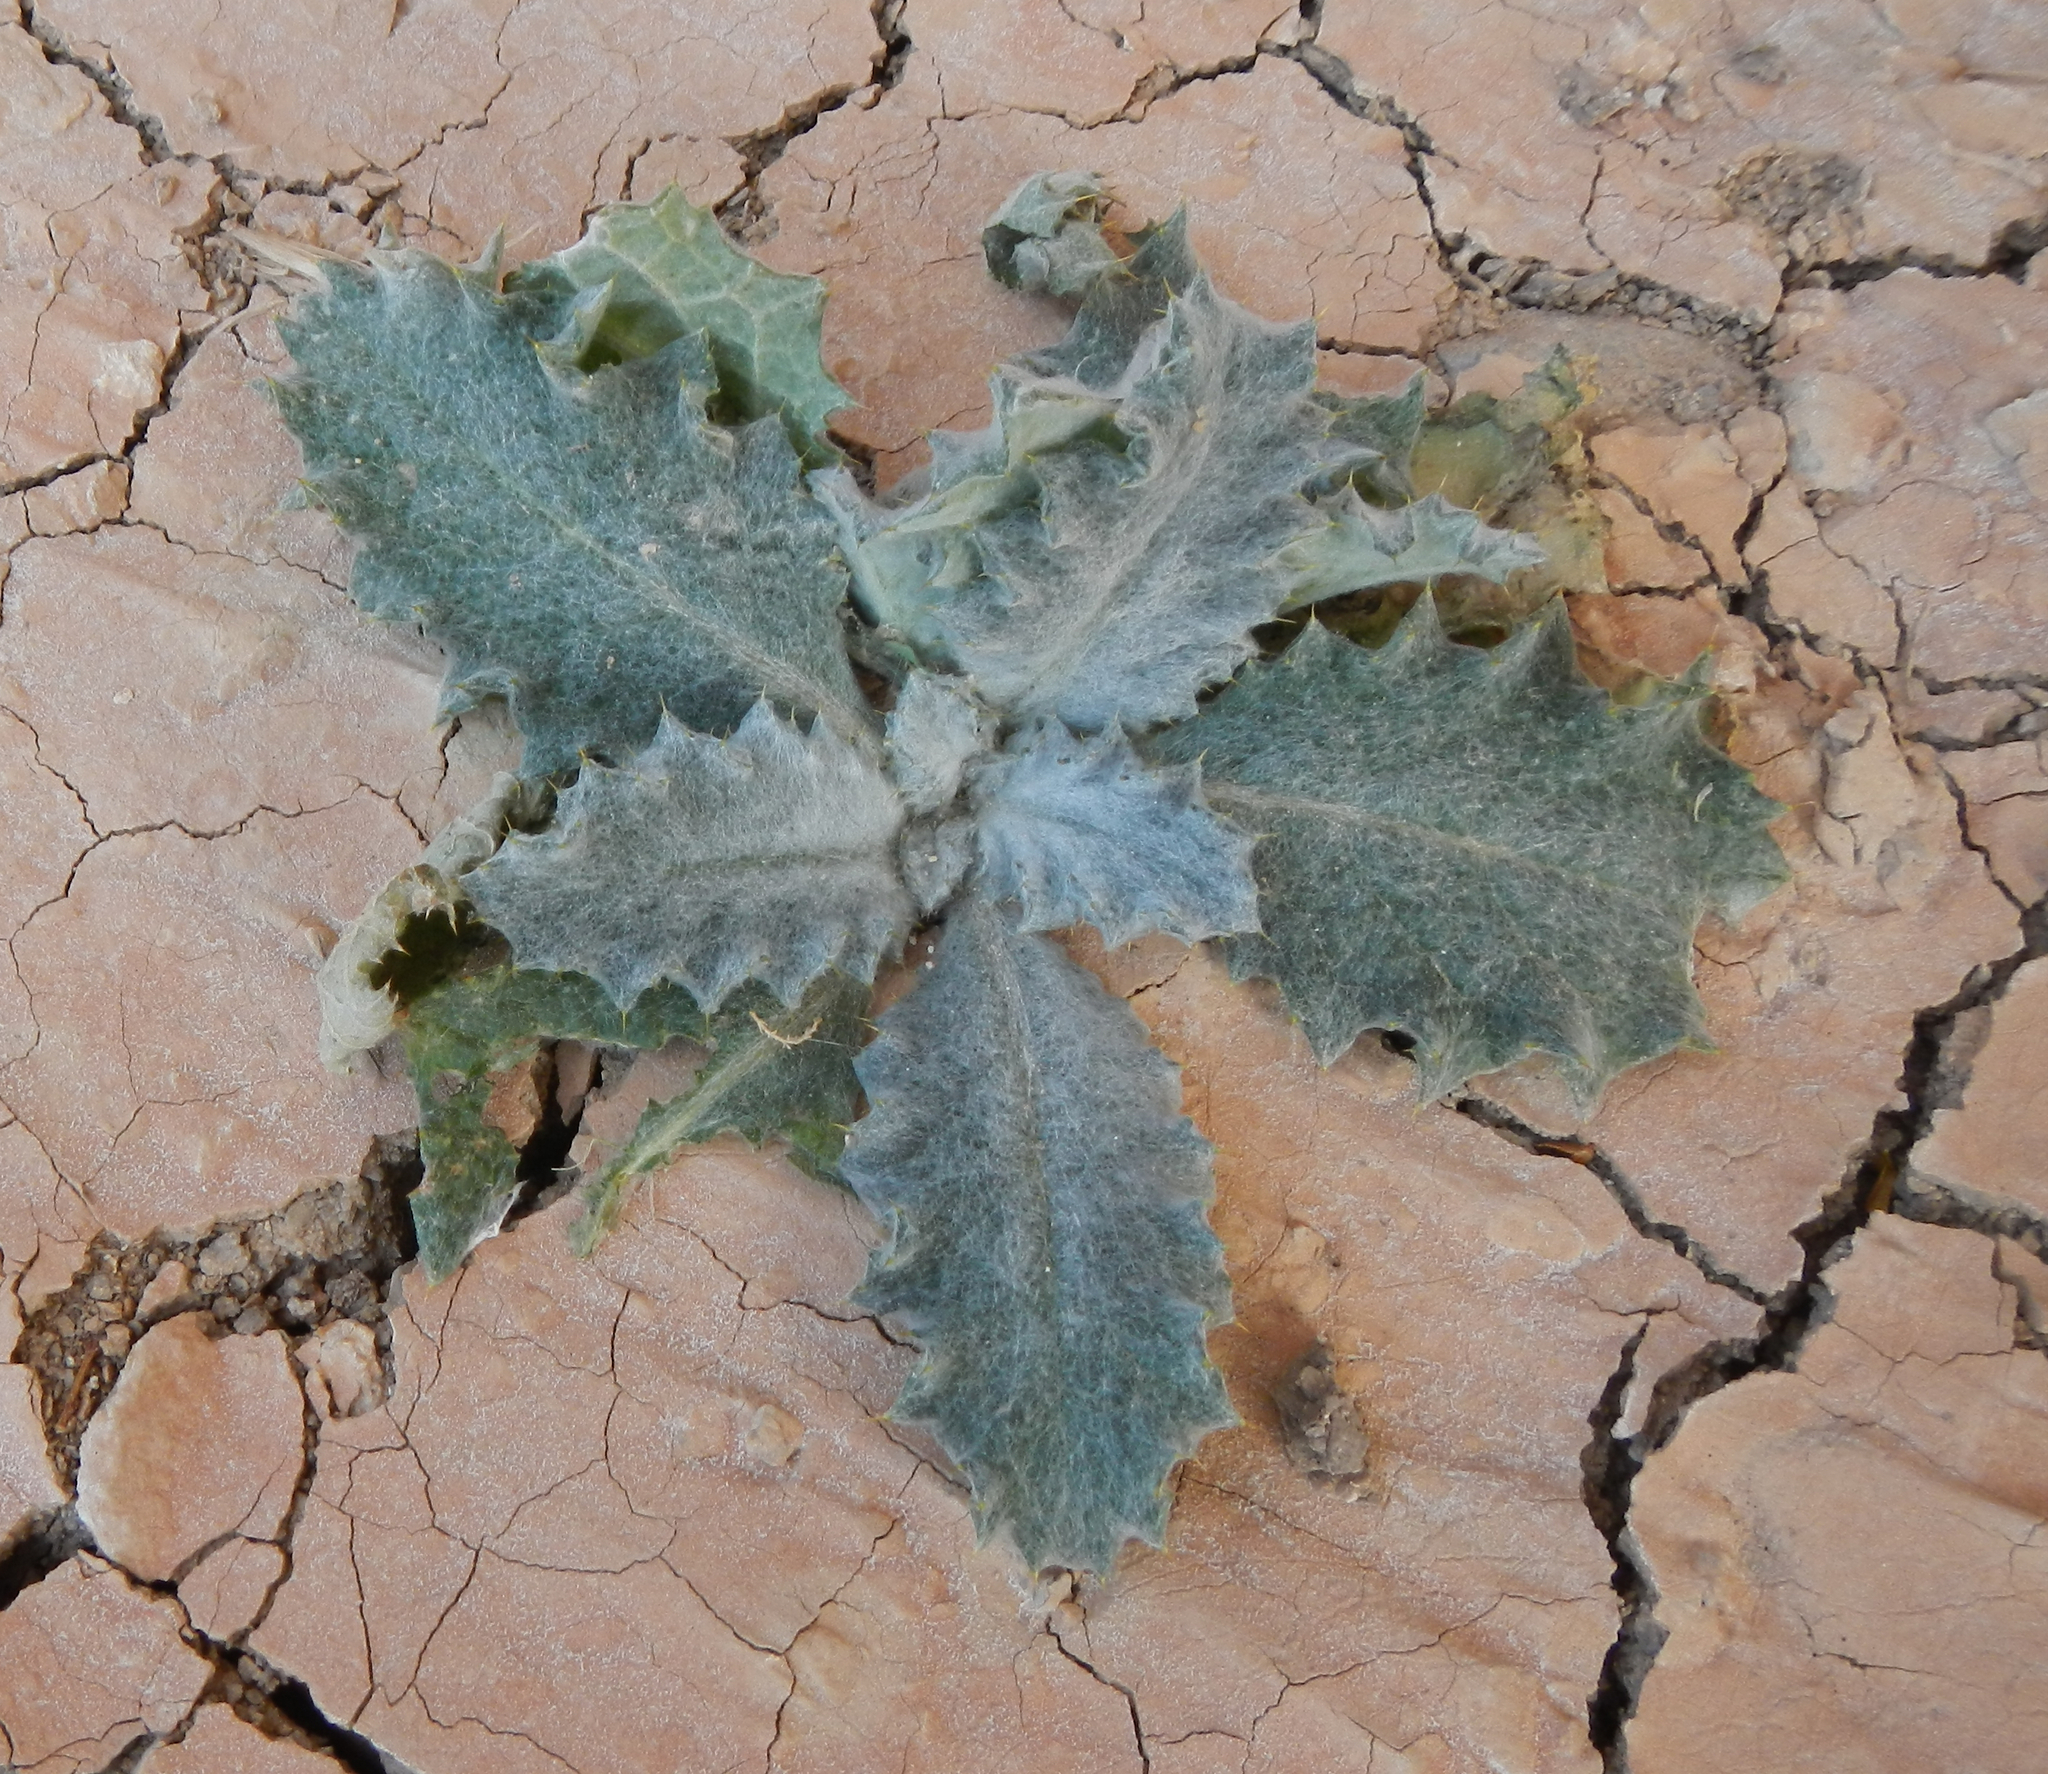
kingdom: Plantae
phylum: Tracheophyta
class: Magnoliopsida
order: Asterales
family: Asteraceae
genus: Onopordum
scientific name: Onopordum acanthium
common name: Scotch thistle
